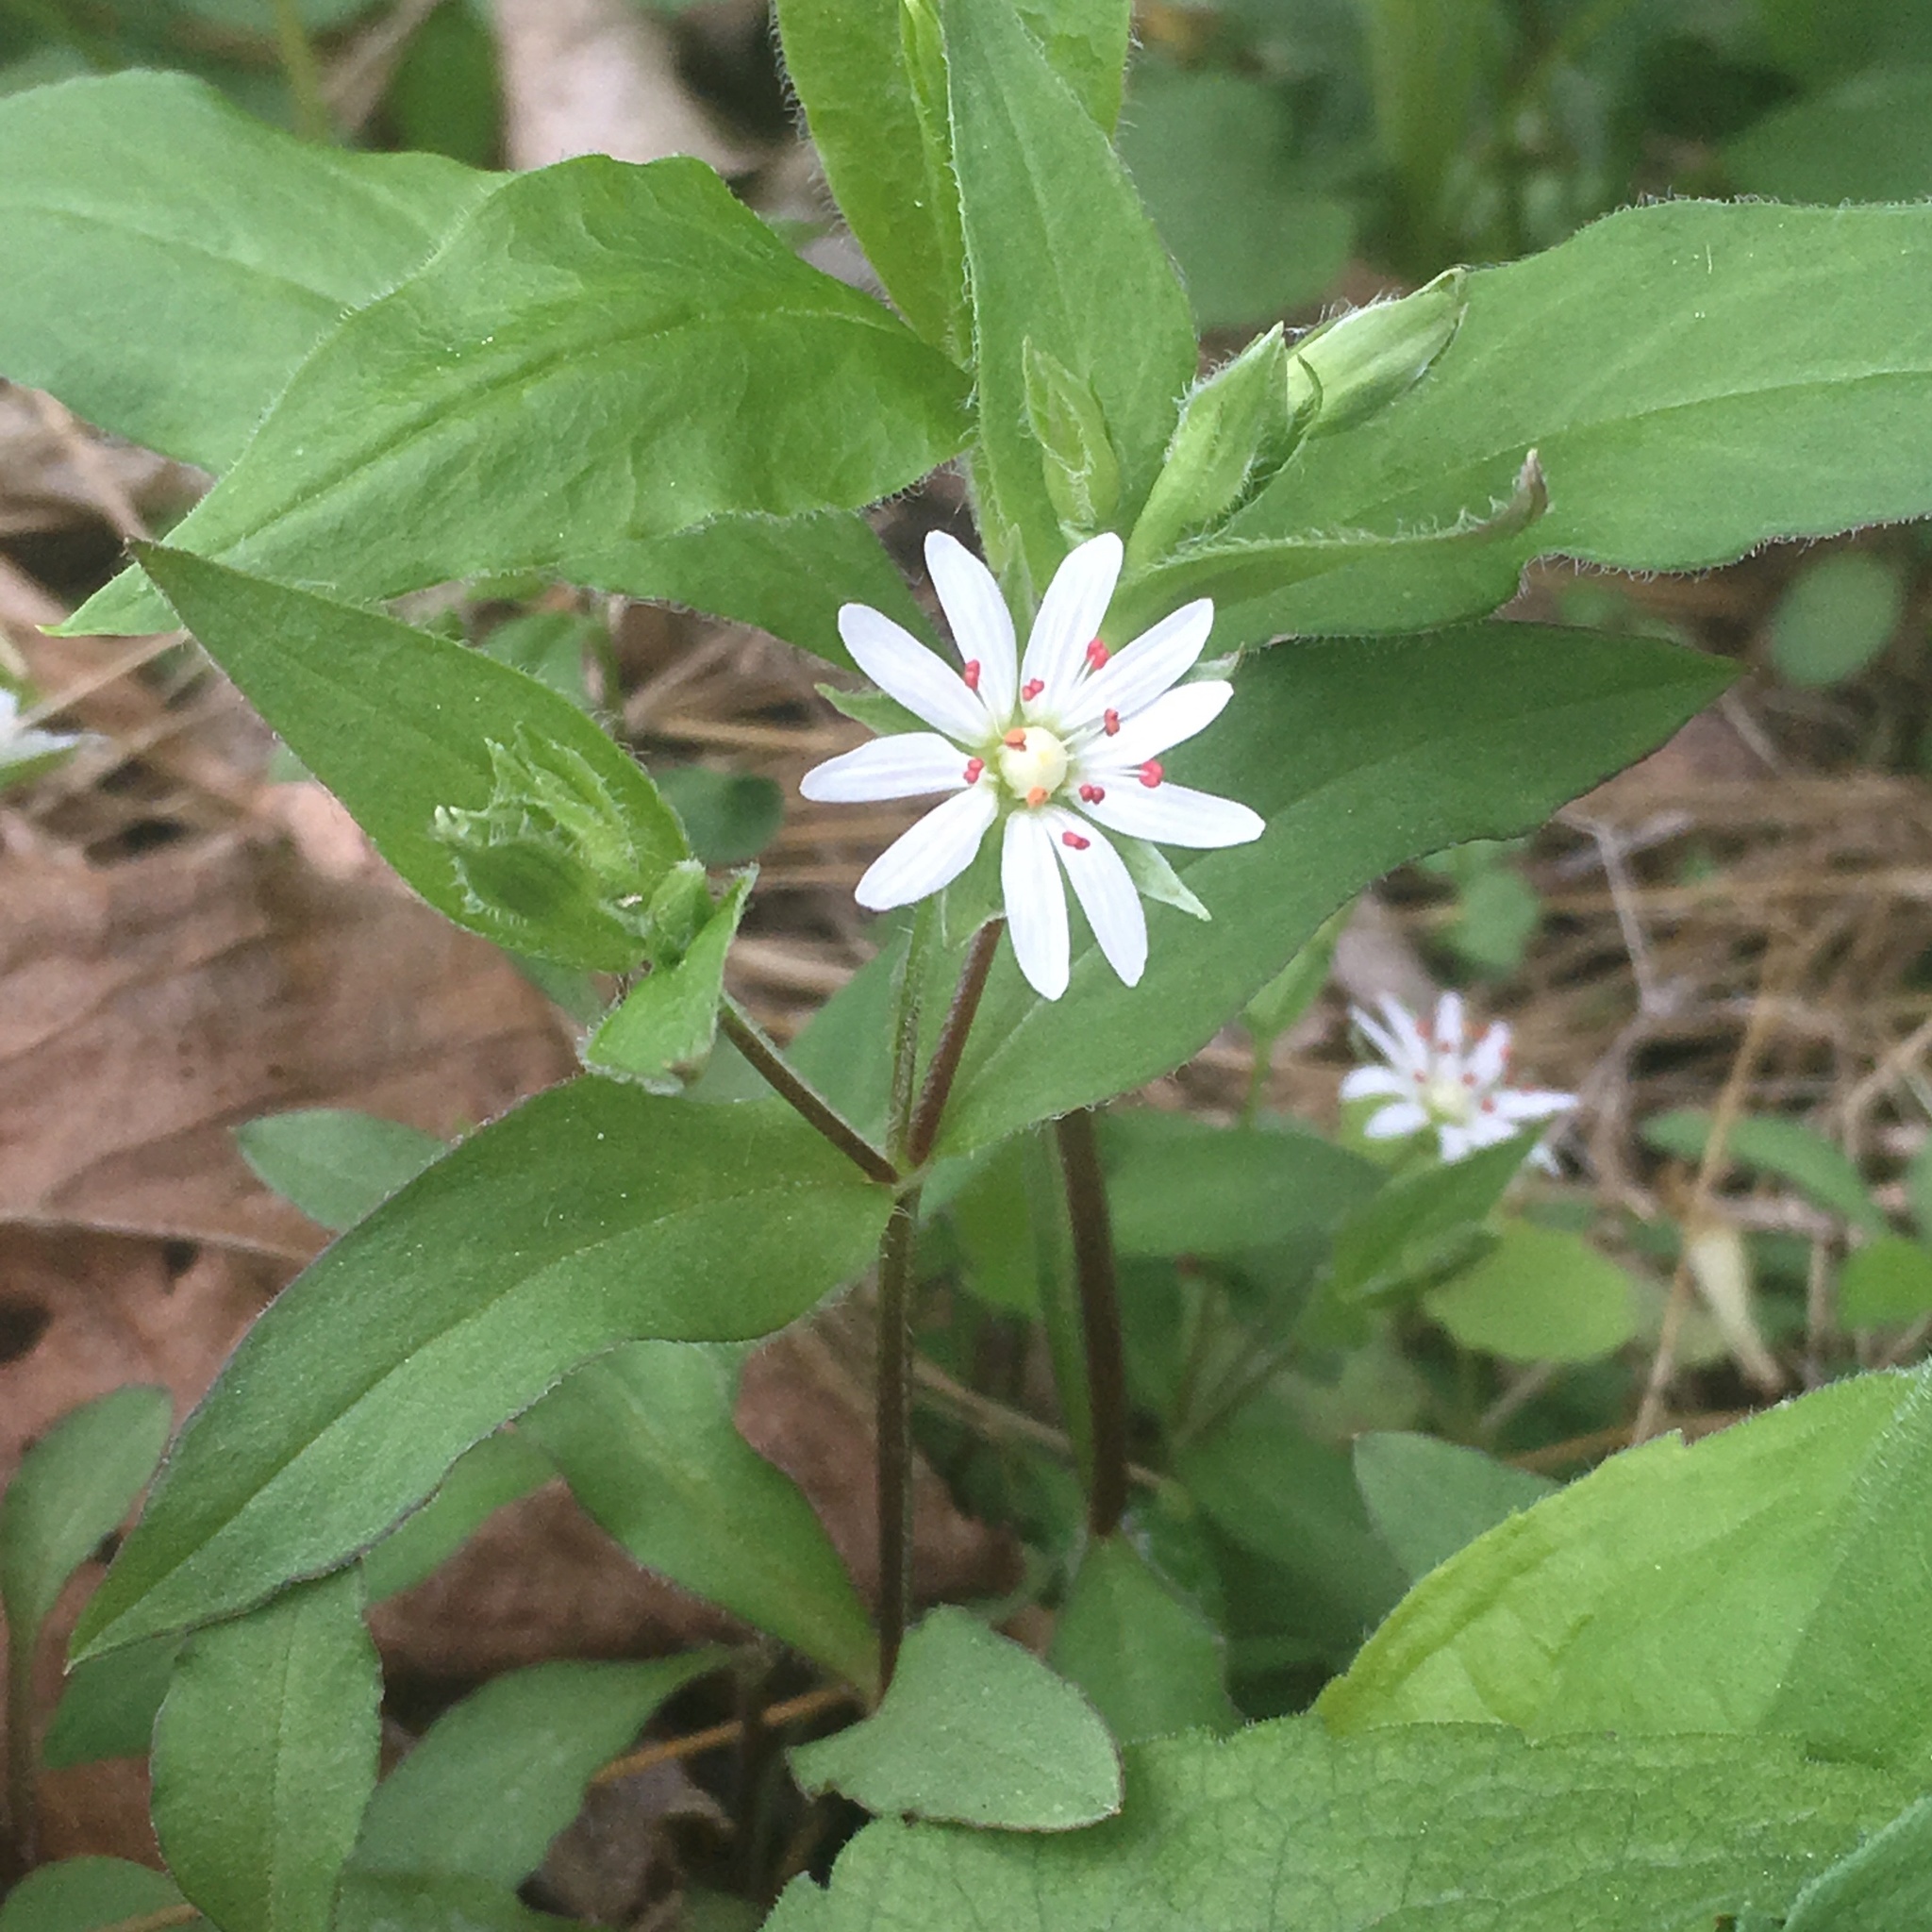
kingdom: Plantae
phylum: Tracheophyta
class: Magnoliopsida
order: Caryophyllales
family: Caryophyllaceae
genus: Stellaria
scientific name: Stellaria pubera
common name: Star chickweed
